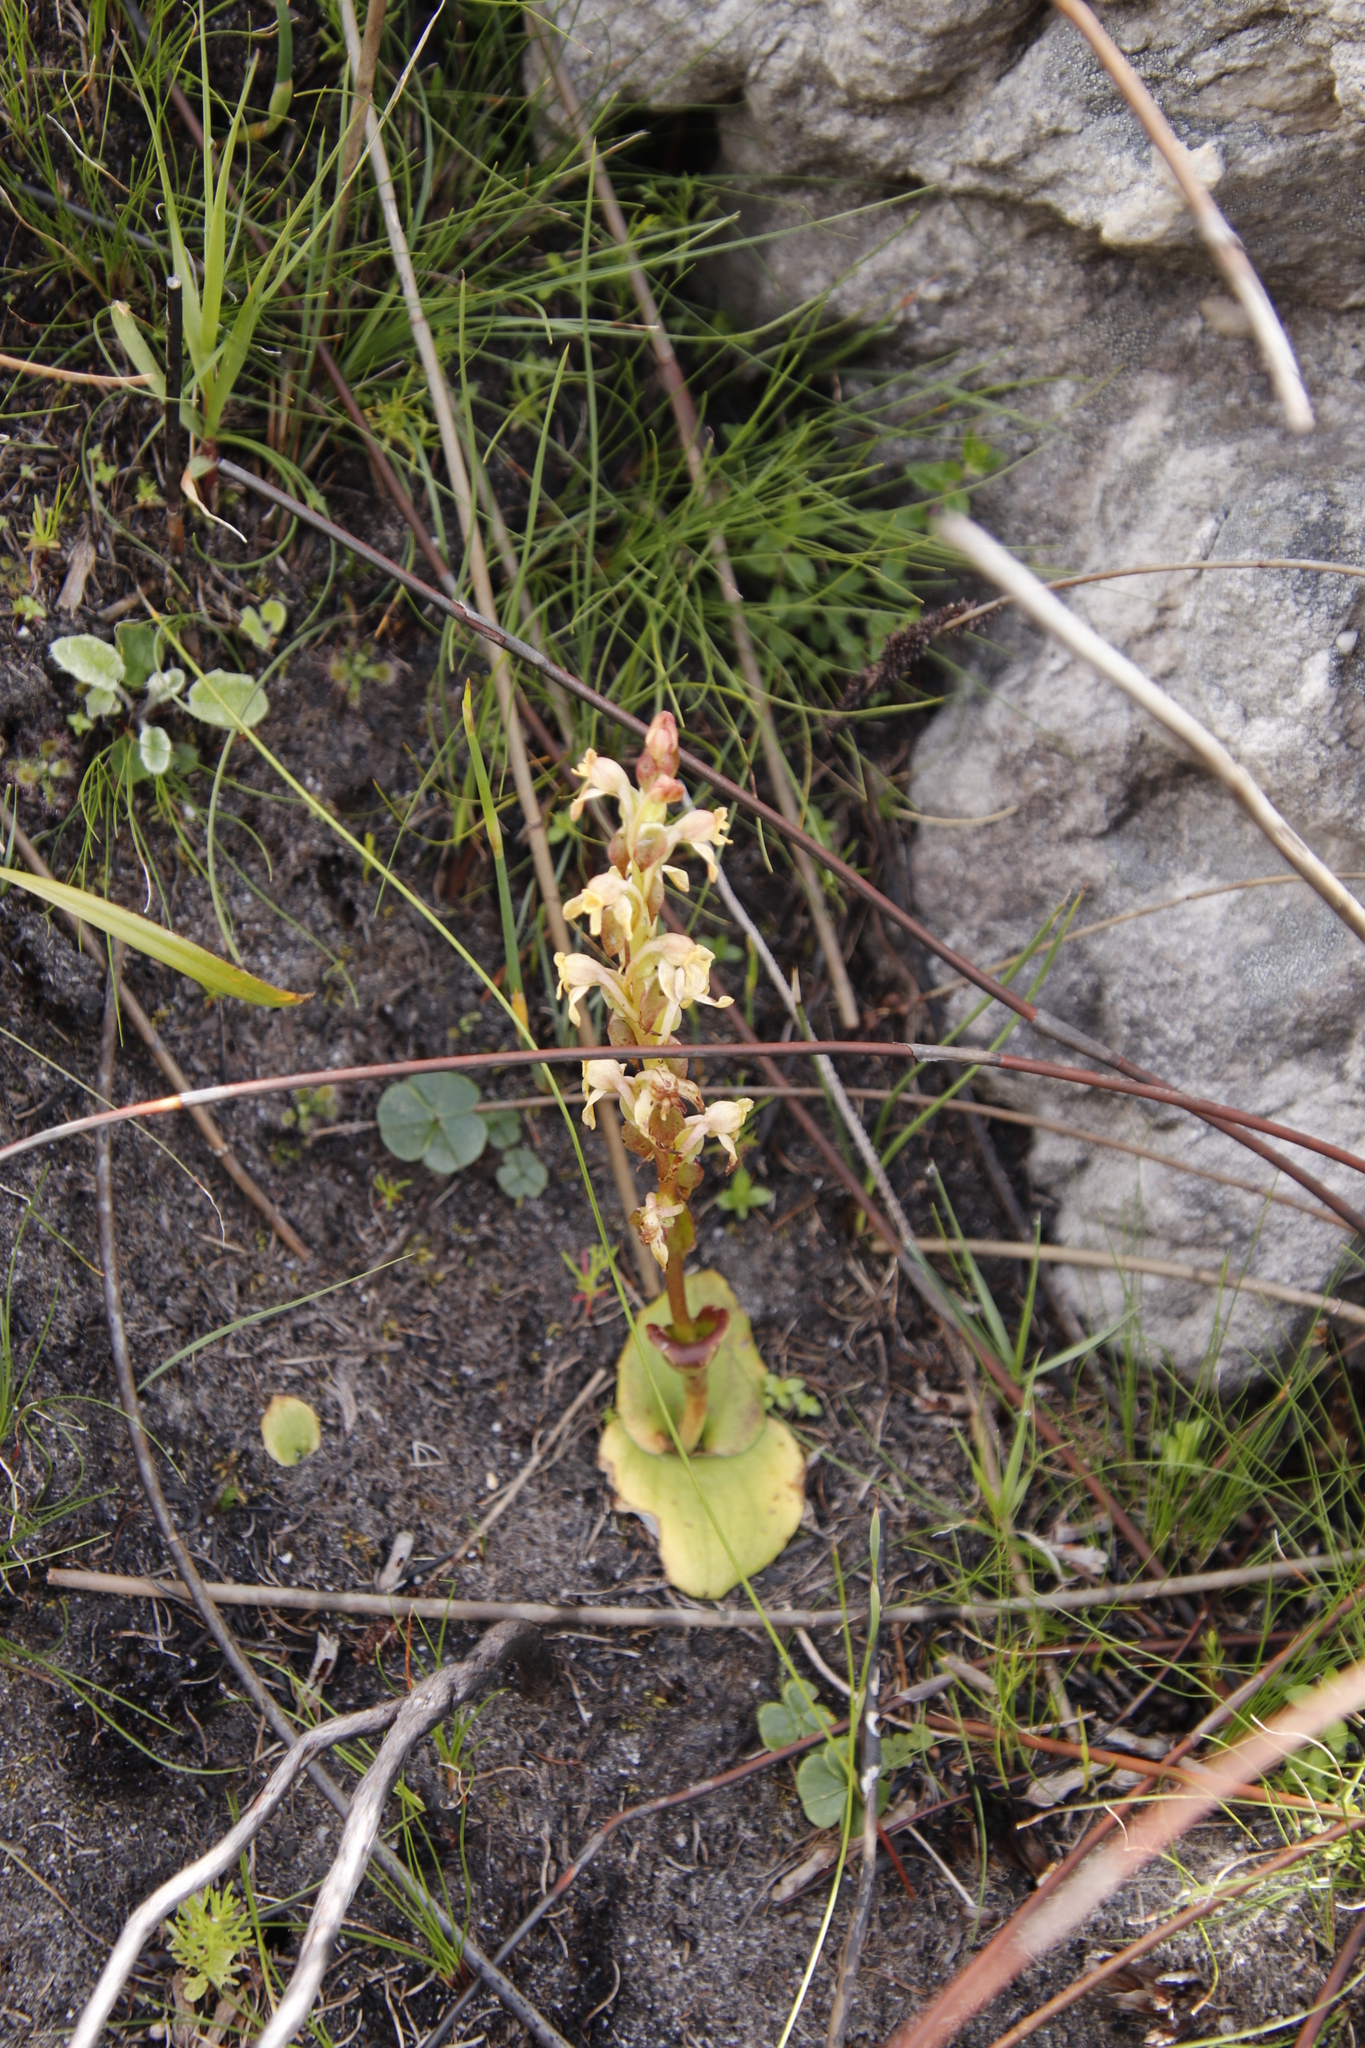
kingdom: Plantae
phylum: Tracheophyta
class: Liliopsida
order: Asparagales
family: Orchidaceae
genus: Satyrium
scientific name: Satyrium situsanguinum
